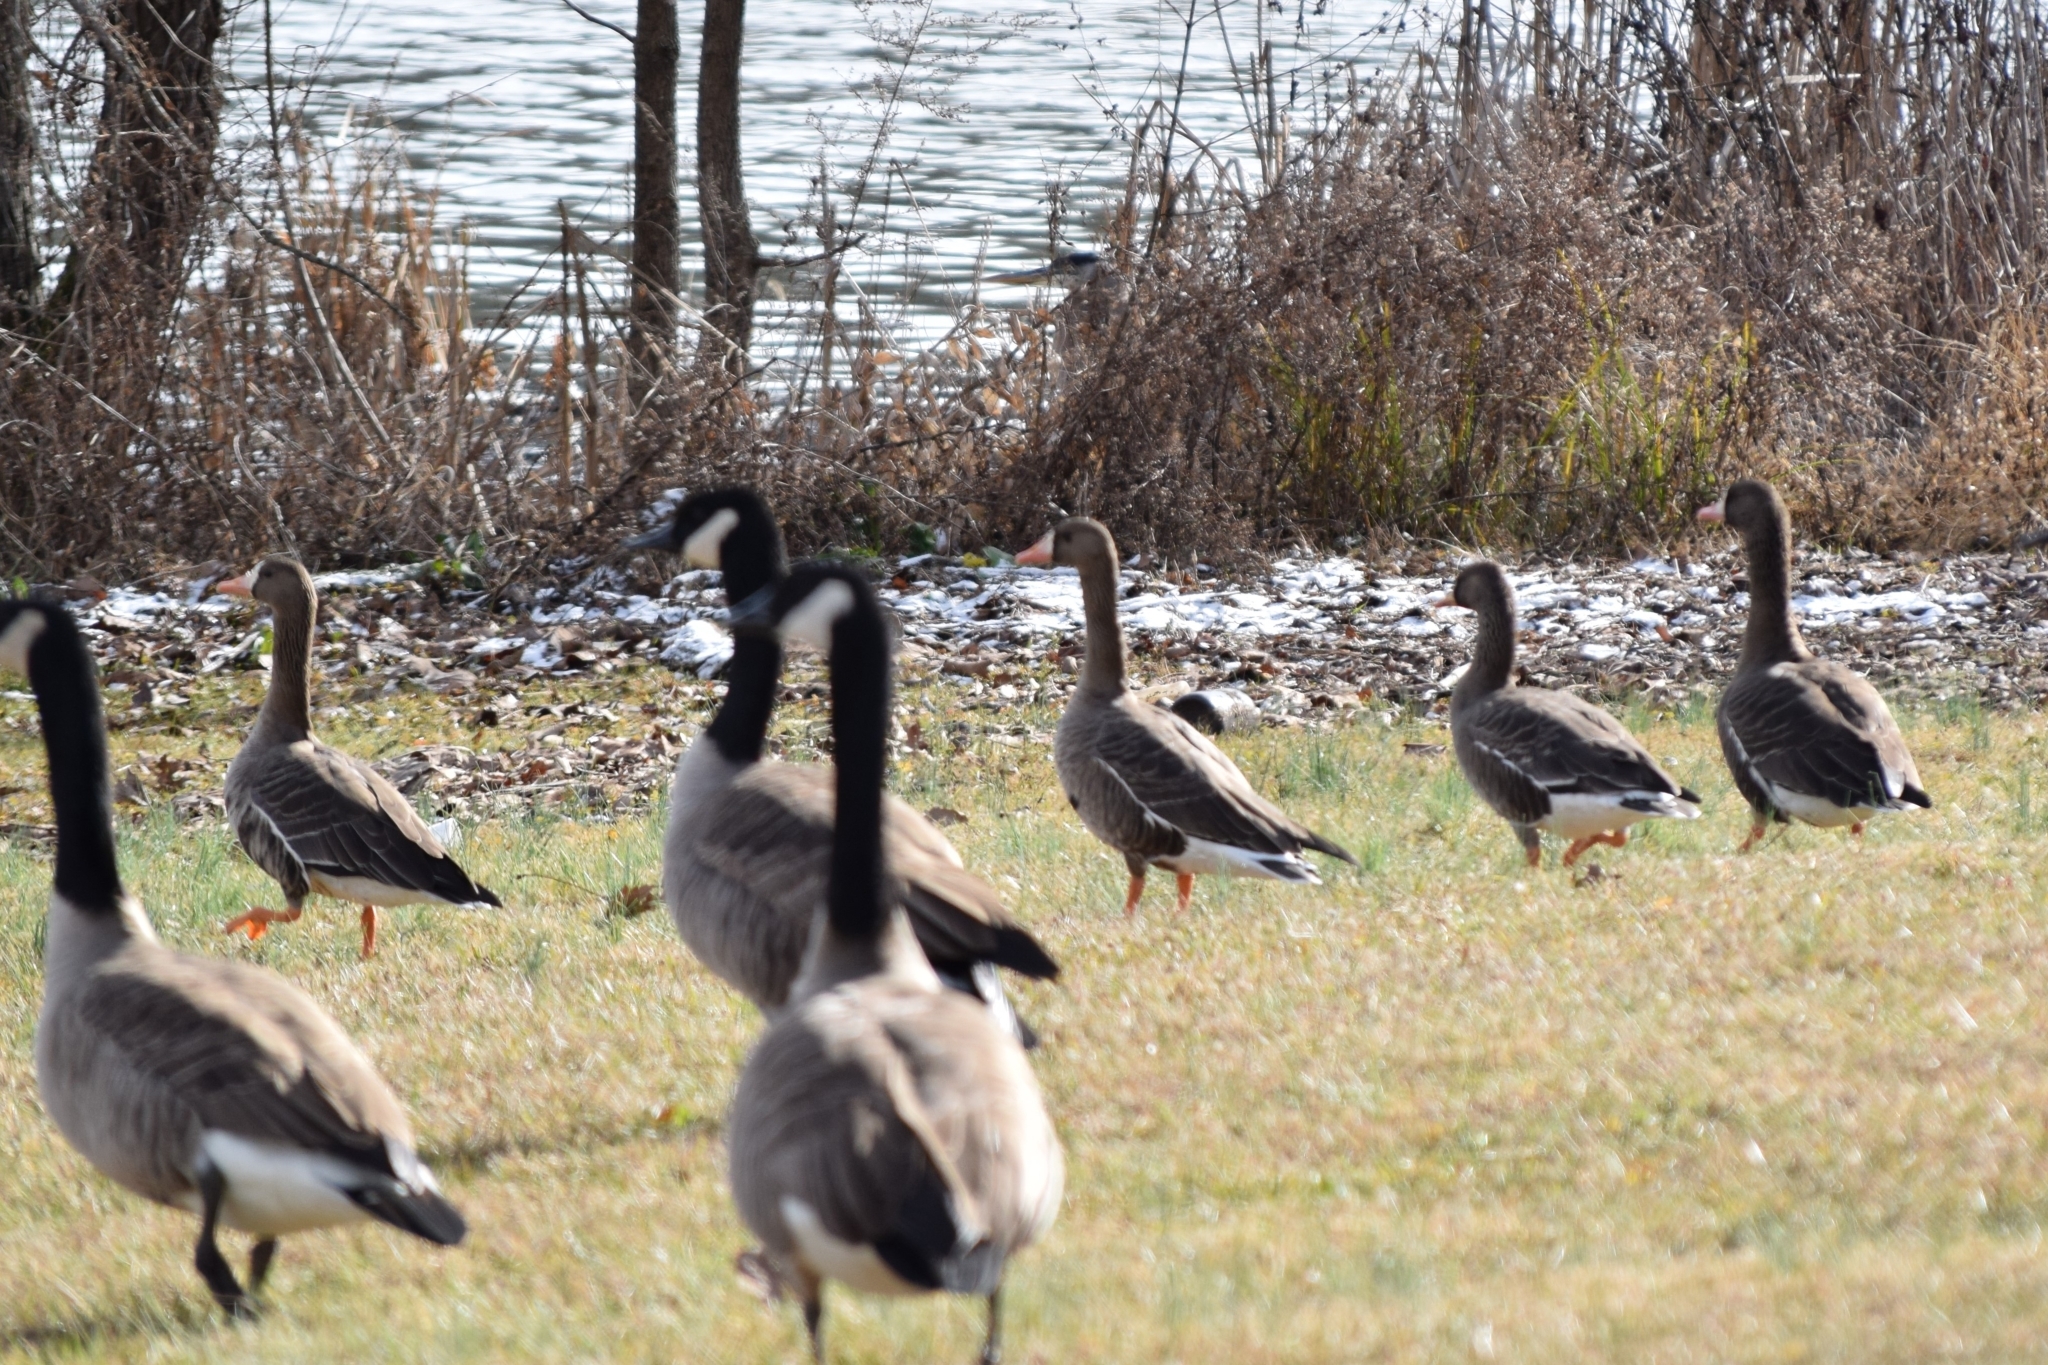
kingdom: Animalia
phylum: Chordata
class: Aves
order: Anseriformes
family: Anatidae
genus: Anser
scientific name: Anser albifrons
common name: Greater white-fronted goose
